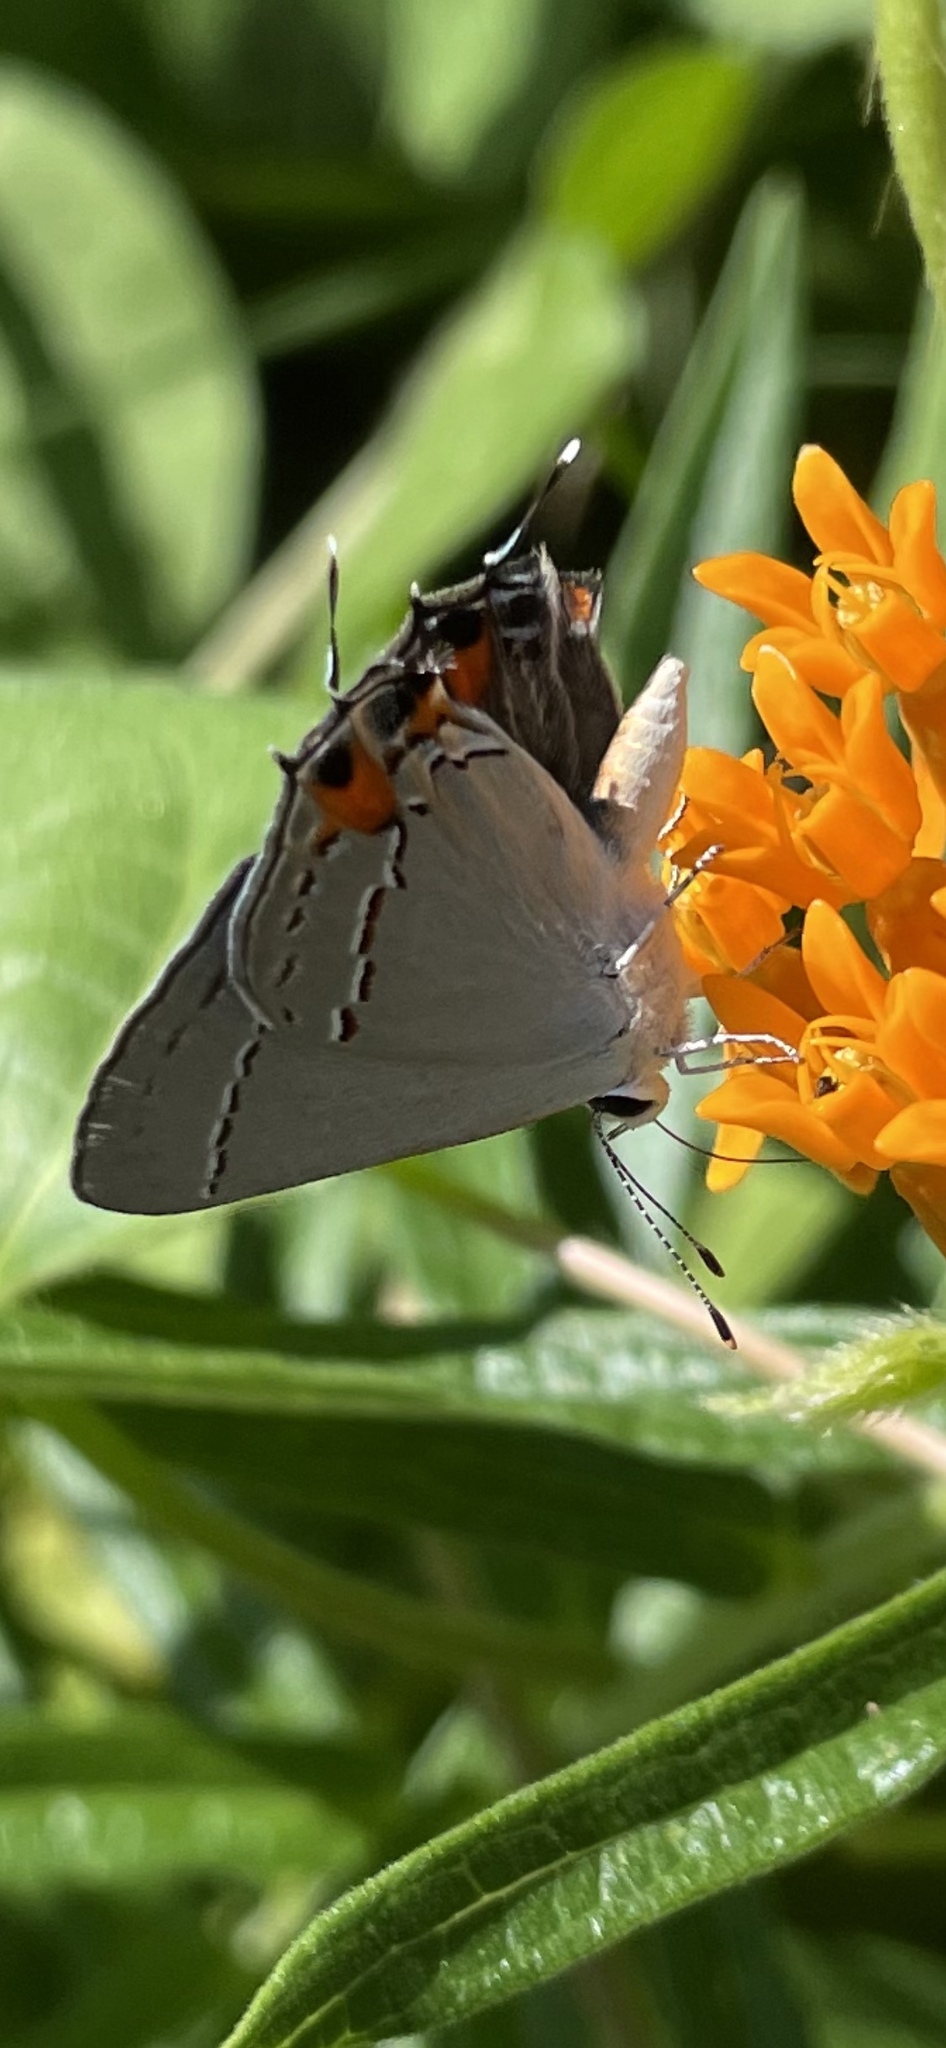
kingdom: Animalia
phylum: Arthropoda
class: Insecta
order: Lepidoptera
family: Lycaenidae
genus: Strymon
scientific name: Strymon melinus
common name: Gray hairstreak
